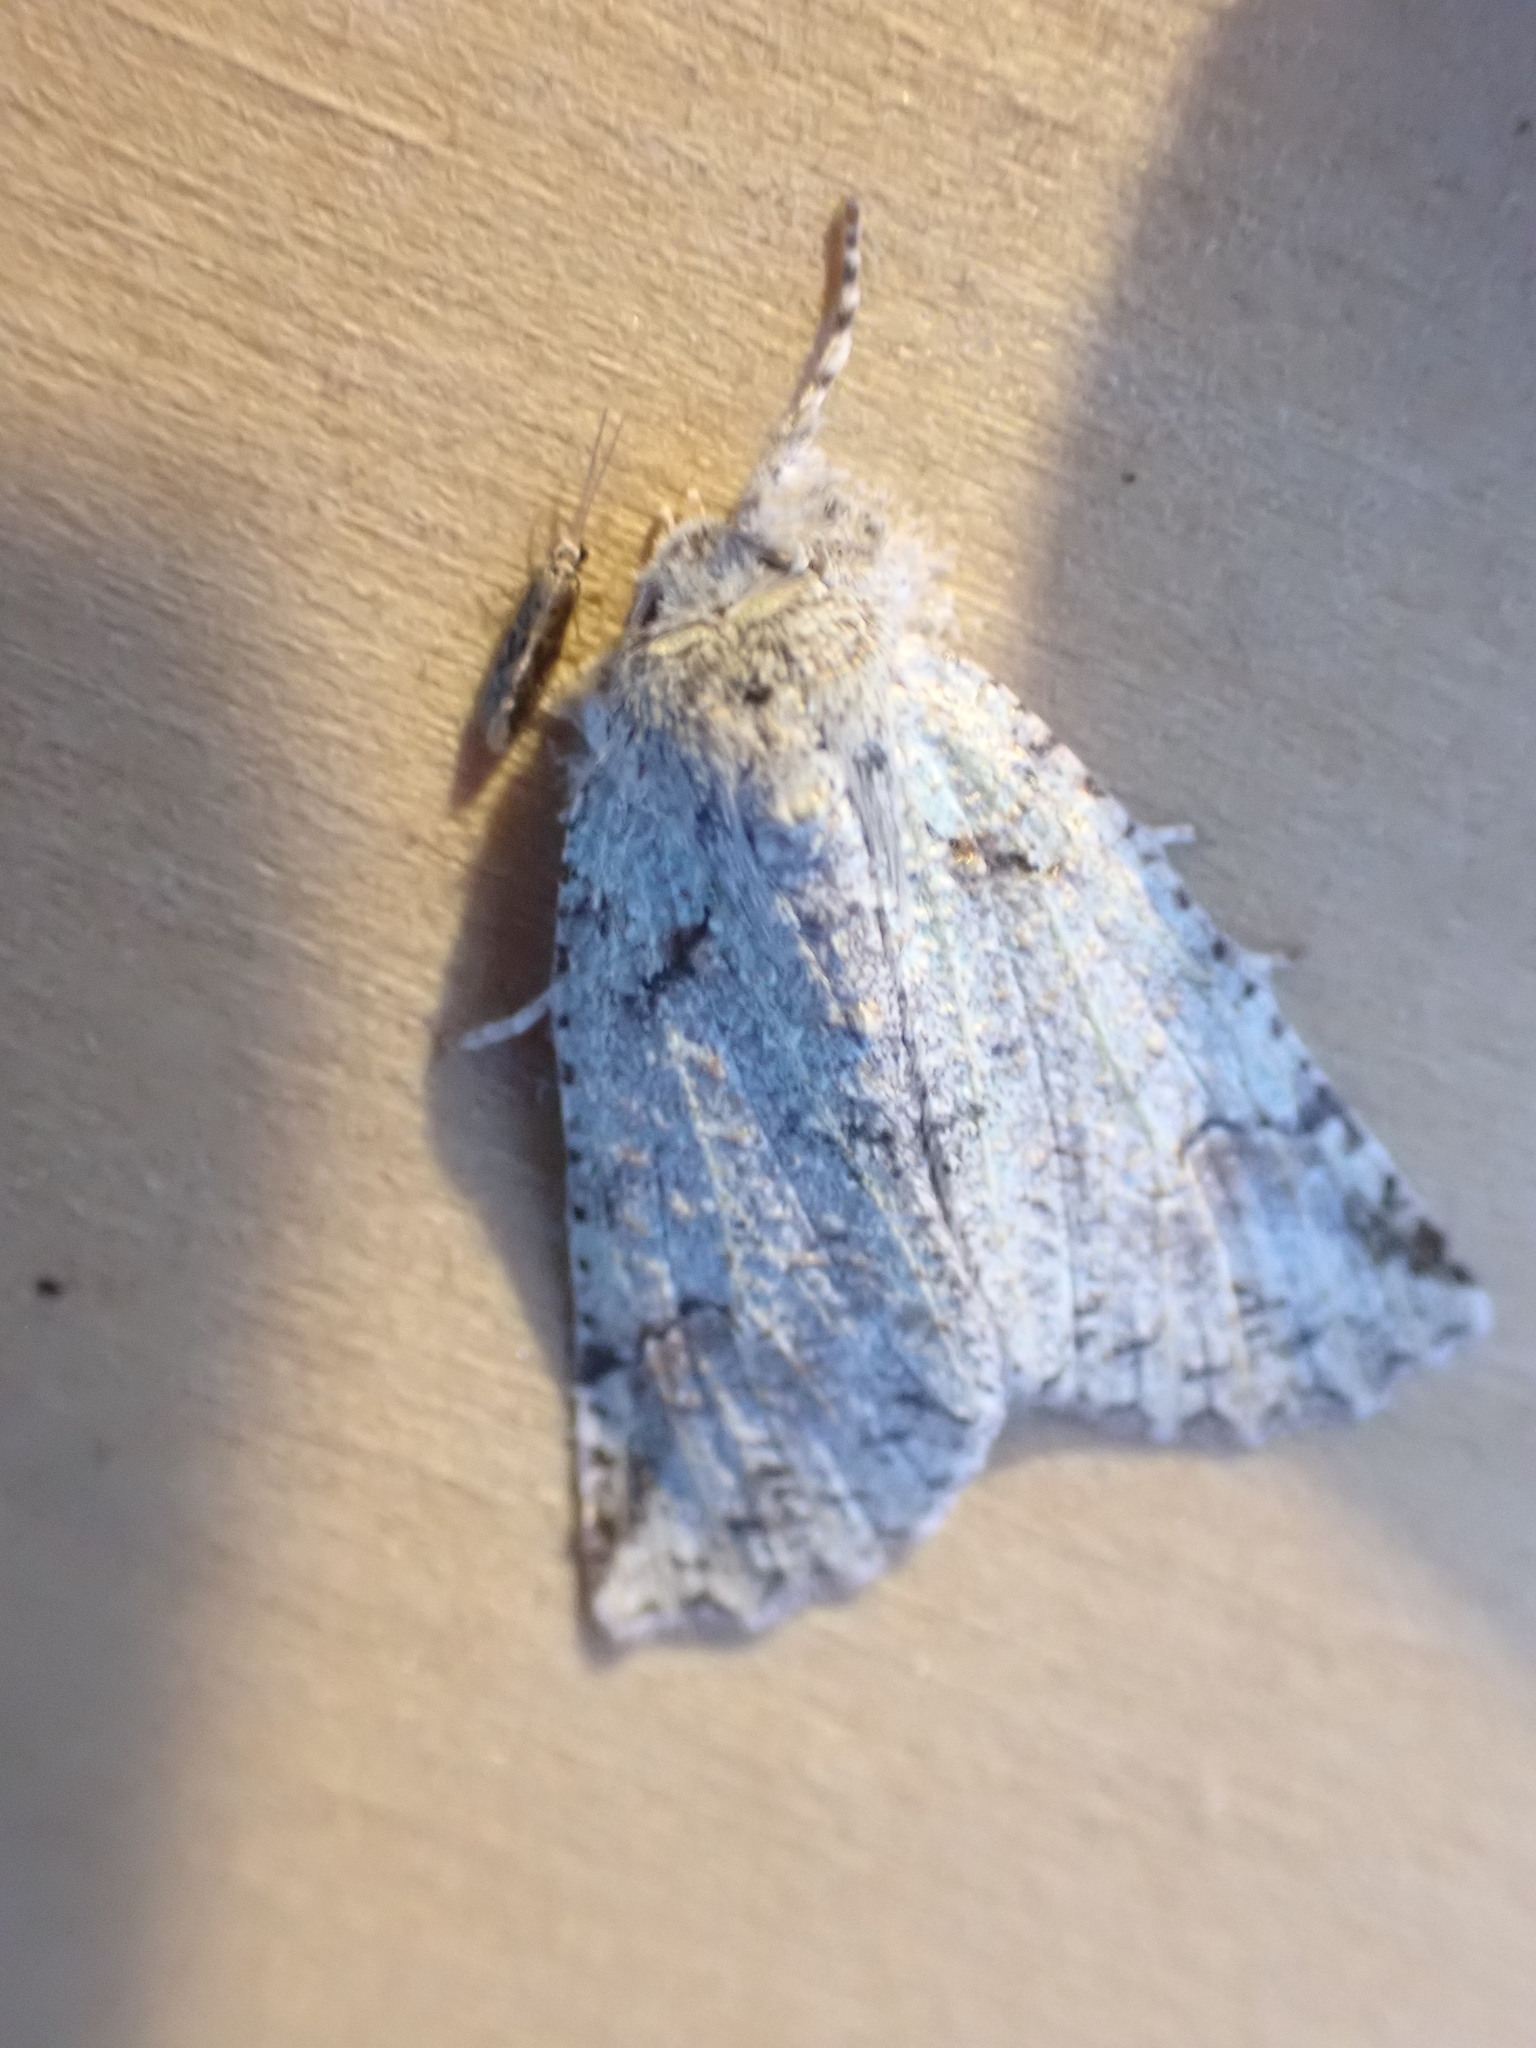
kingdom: Animalia
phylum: Arthropoda
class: Insecta
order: Lepidoptera
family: Geometridae
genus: Declana
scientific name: Declana floccosa
